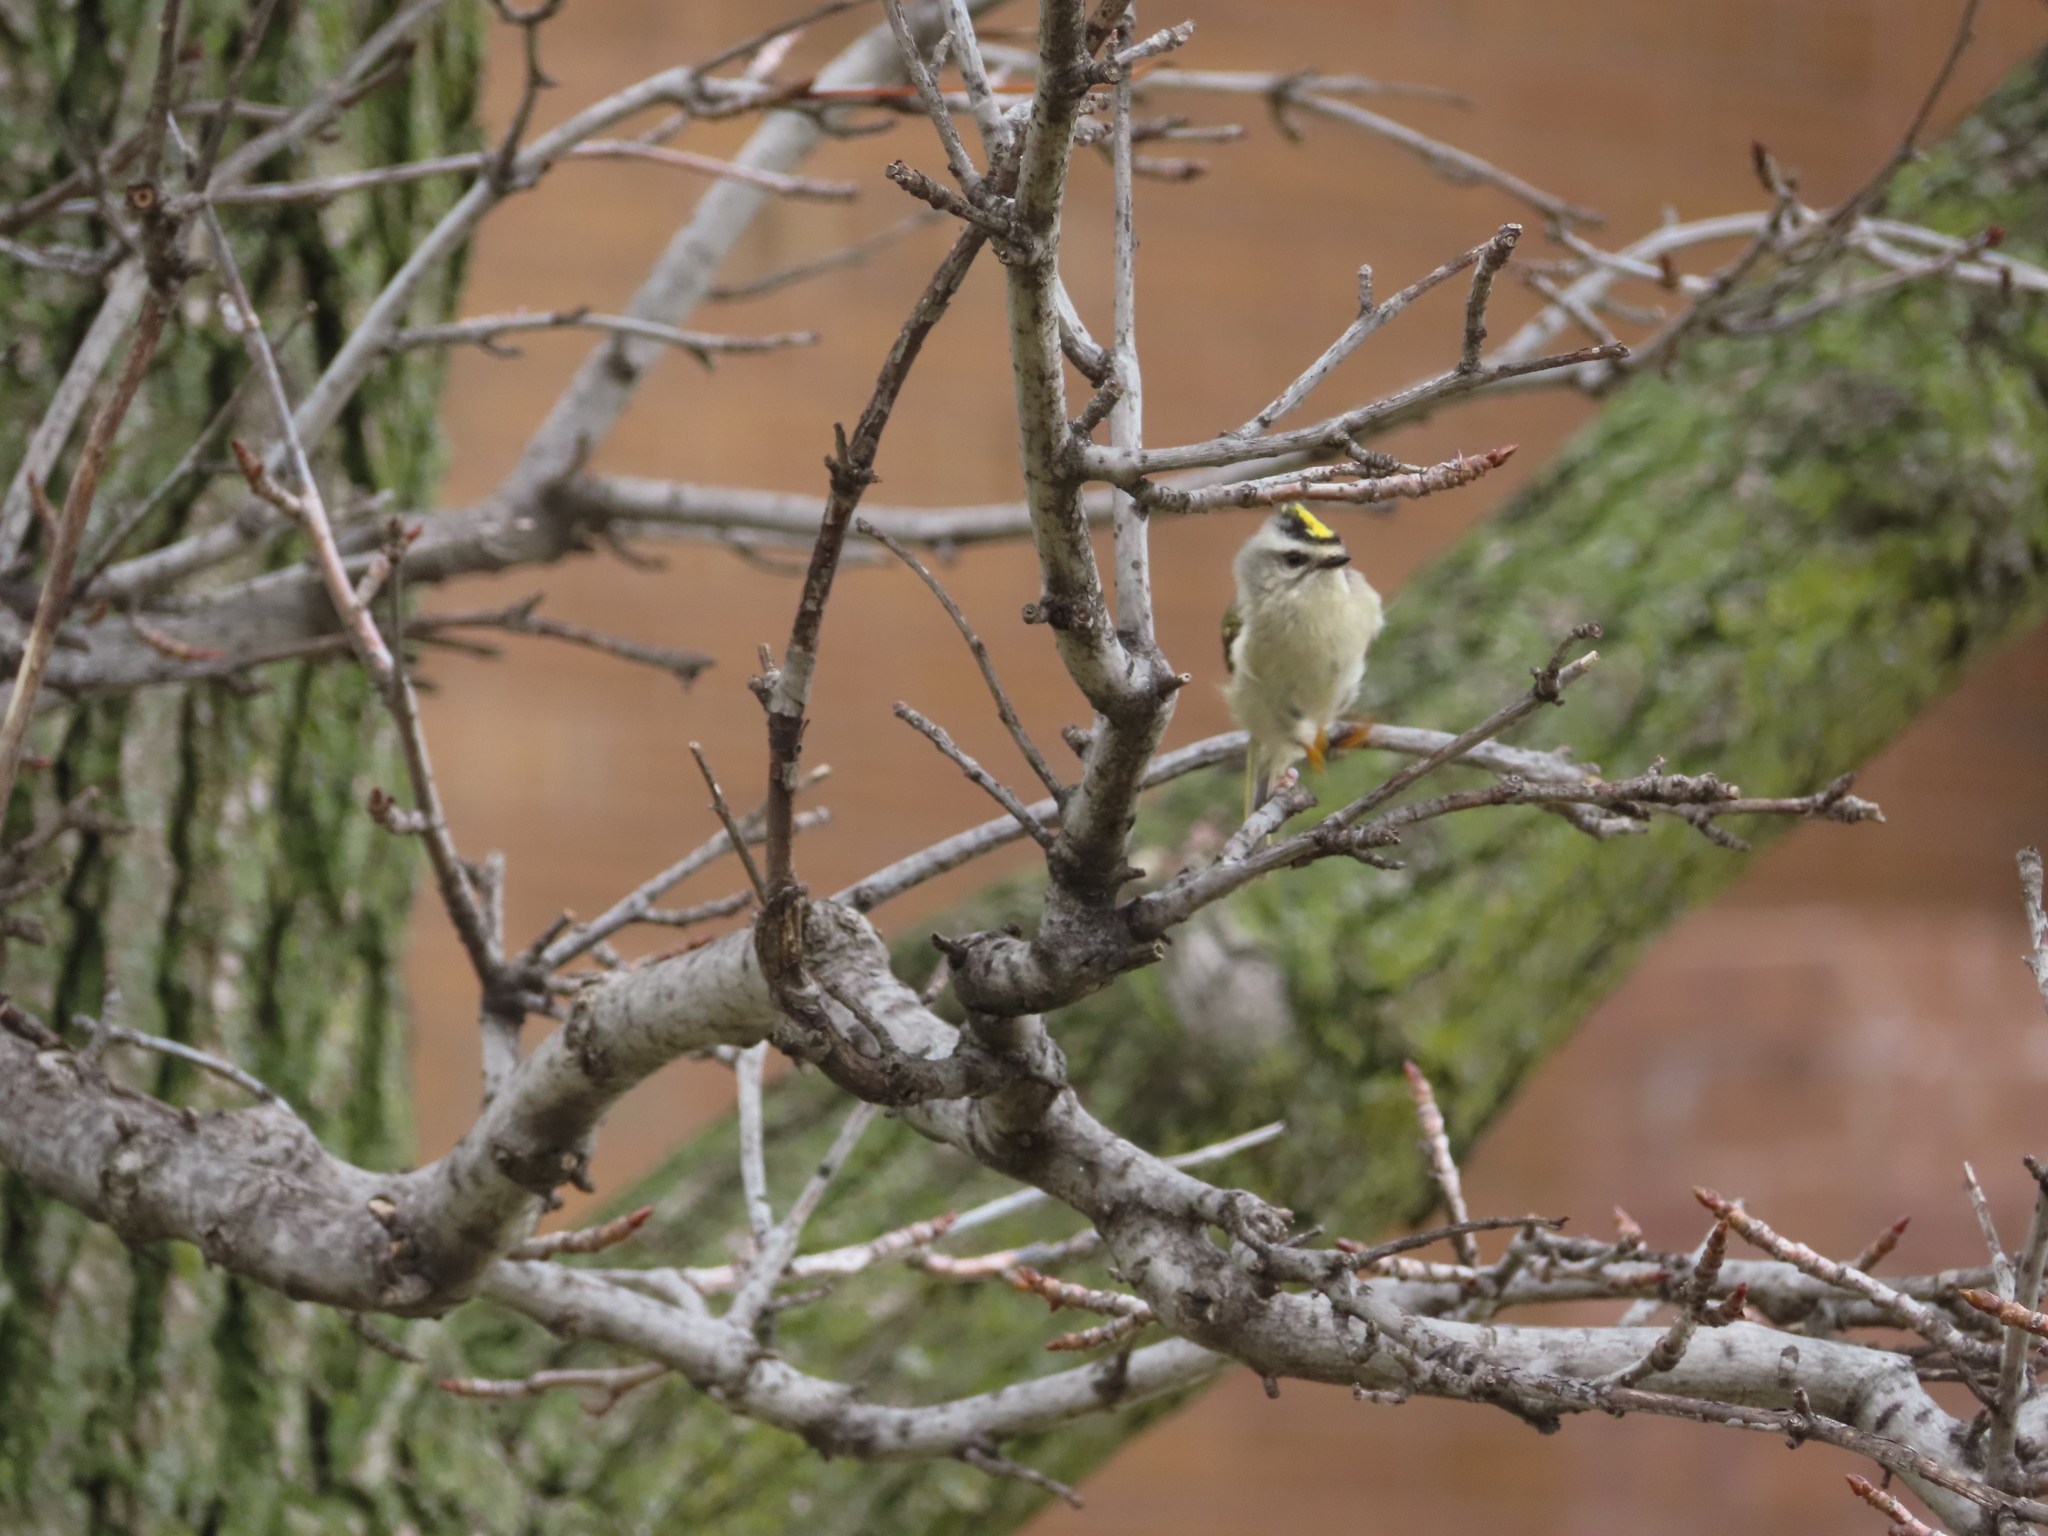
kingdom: Animalia
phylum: Chordata
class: Aves
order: Passeriformes
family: Regulidae
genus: Regulus
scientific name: Regulus satrapa
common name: Golden-crowned kinglet
